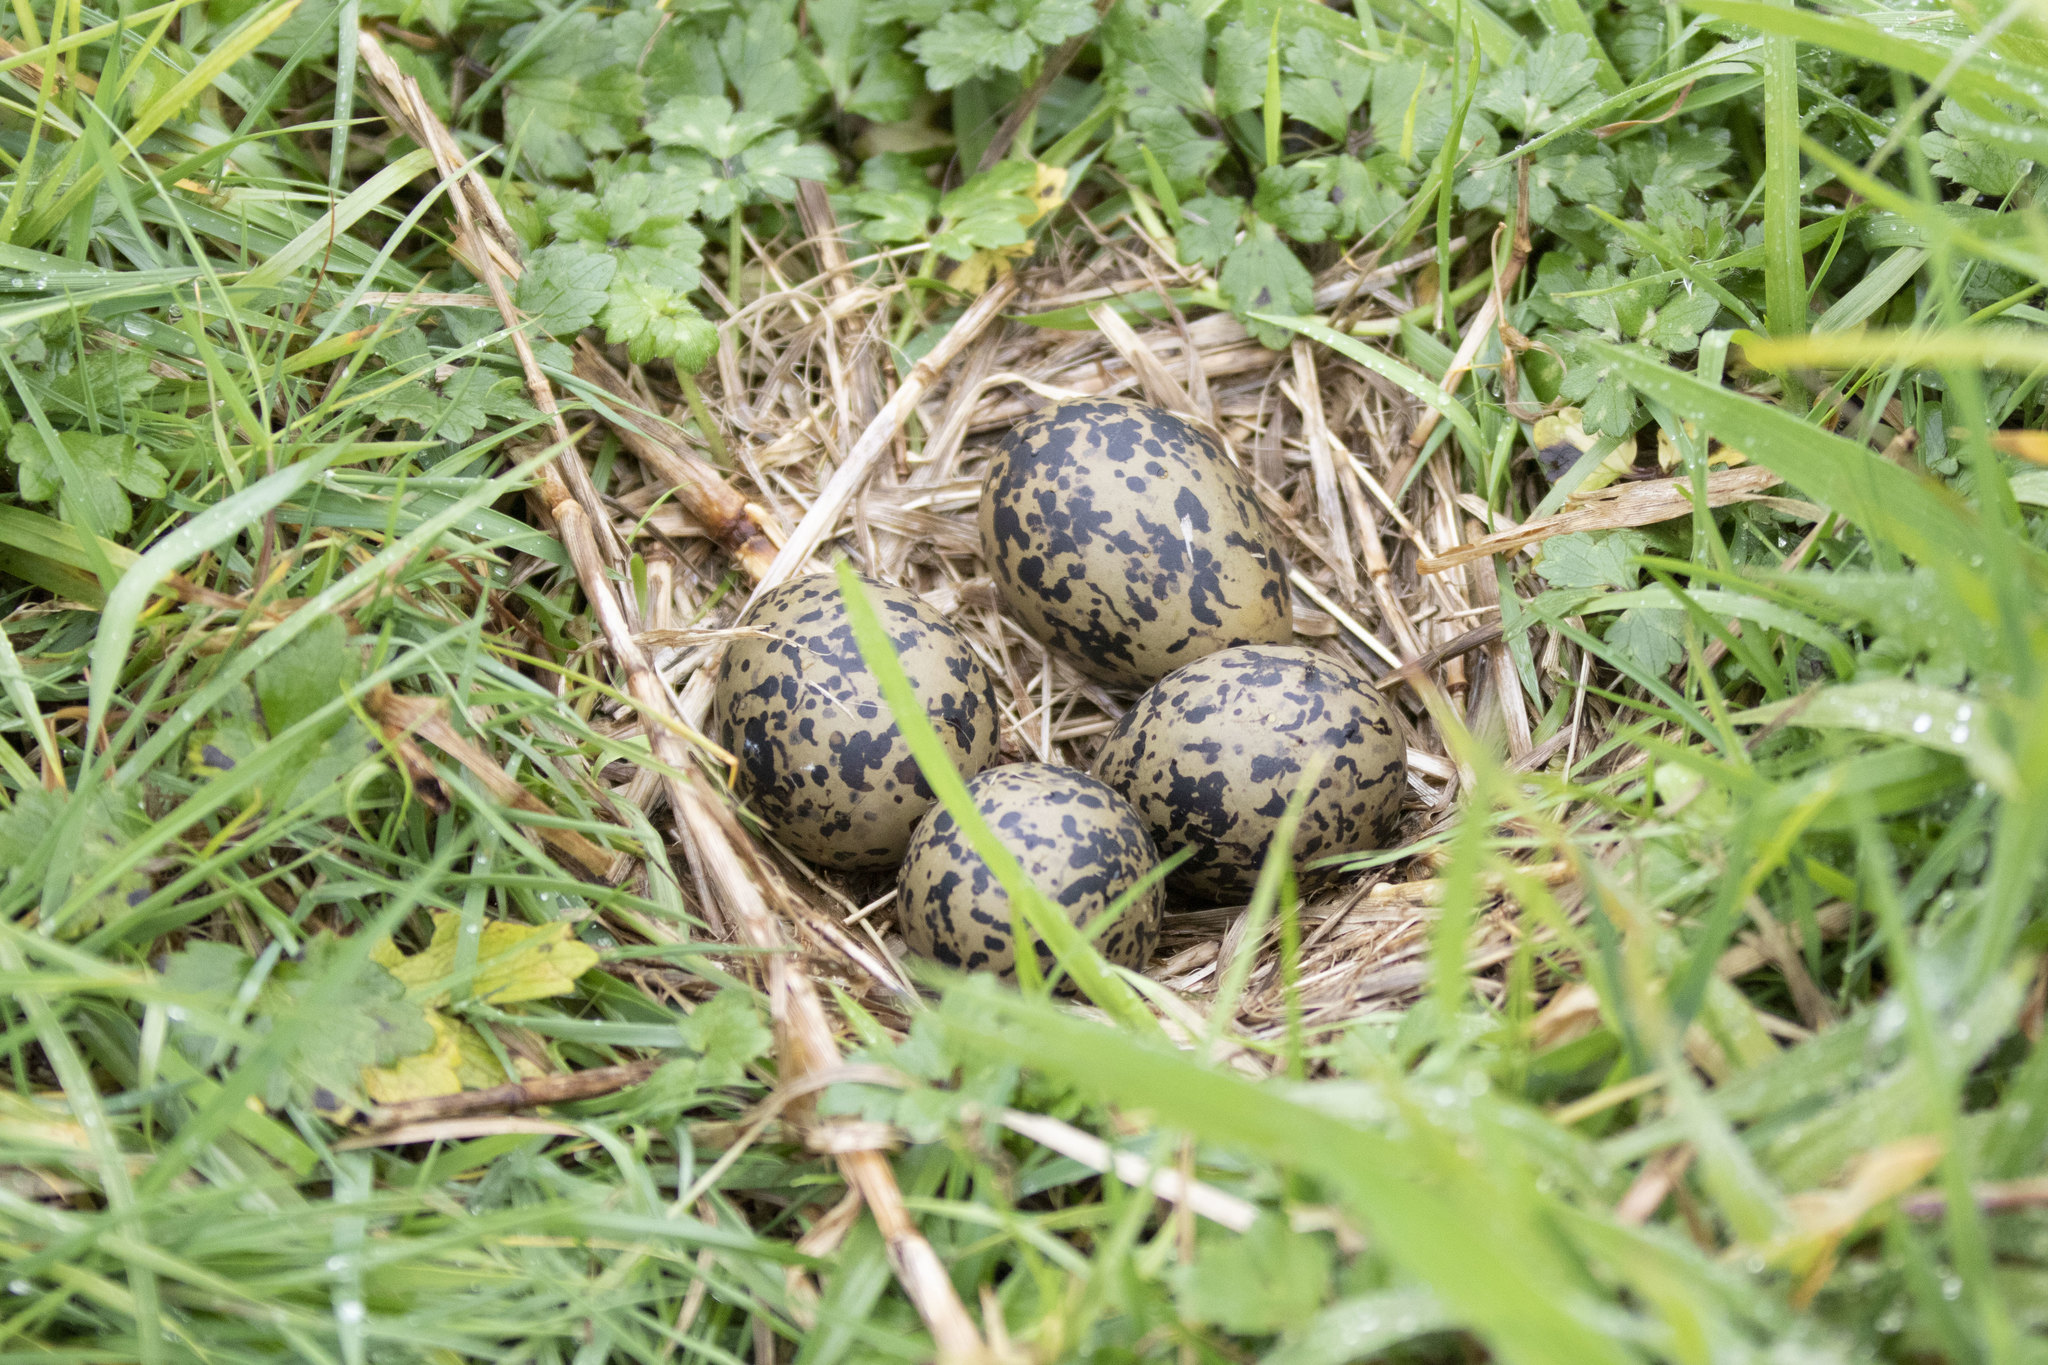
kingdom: Animalia
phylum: Chordata
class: Aves
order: Charadriiformes
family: Recurvirostridae
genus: Himantopus
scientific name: Himantopus leucocephalus
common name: White-headed stilt
